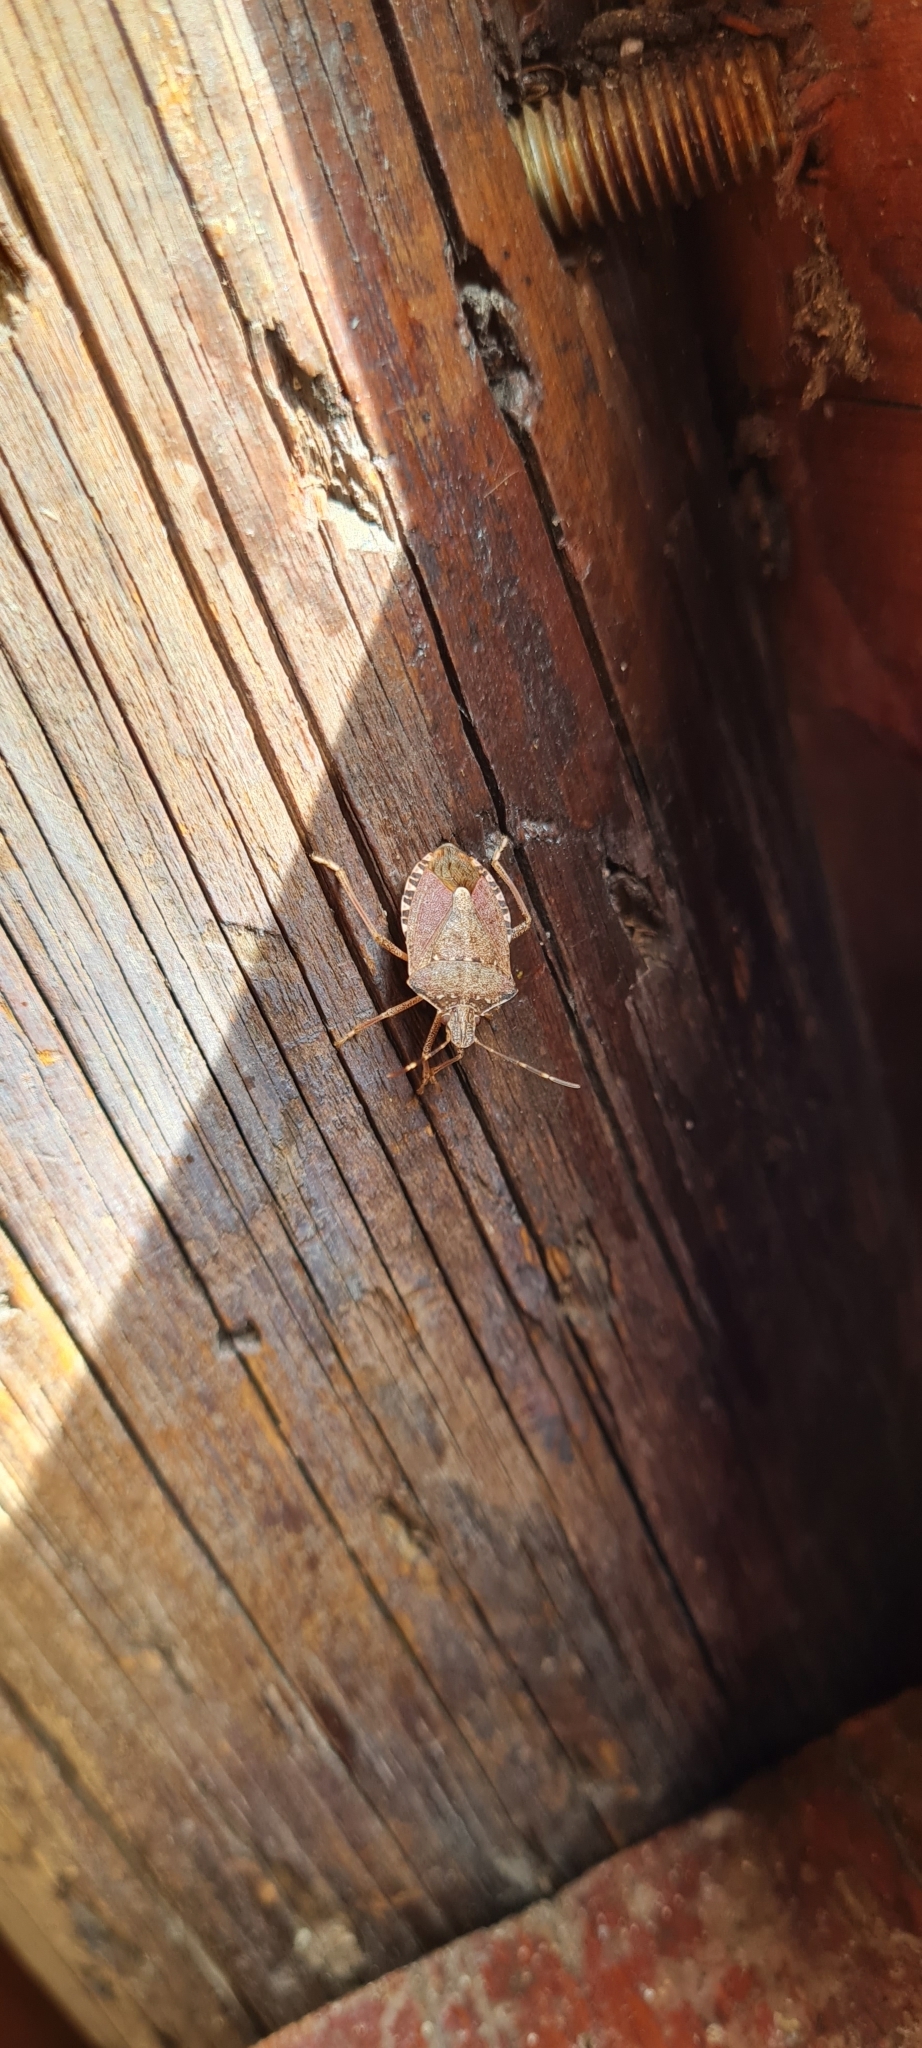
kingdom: Animalia
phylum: Arthropoda
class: Insecta
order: Hemiptera
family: Pentatomidae
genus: Halyomorpha
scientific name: Halyomorpha halys
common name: Brown marmorated stink bug
